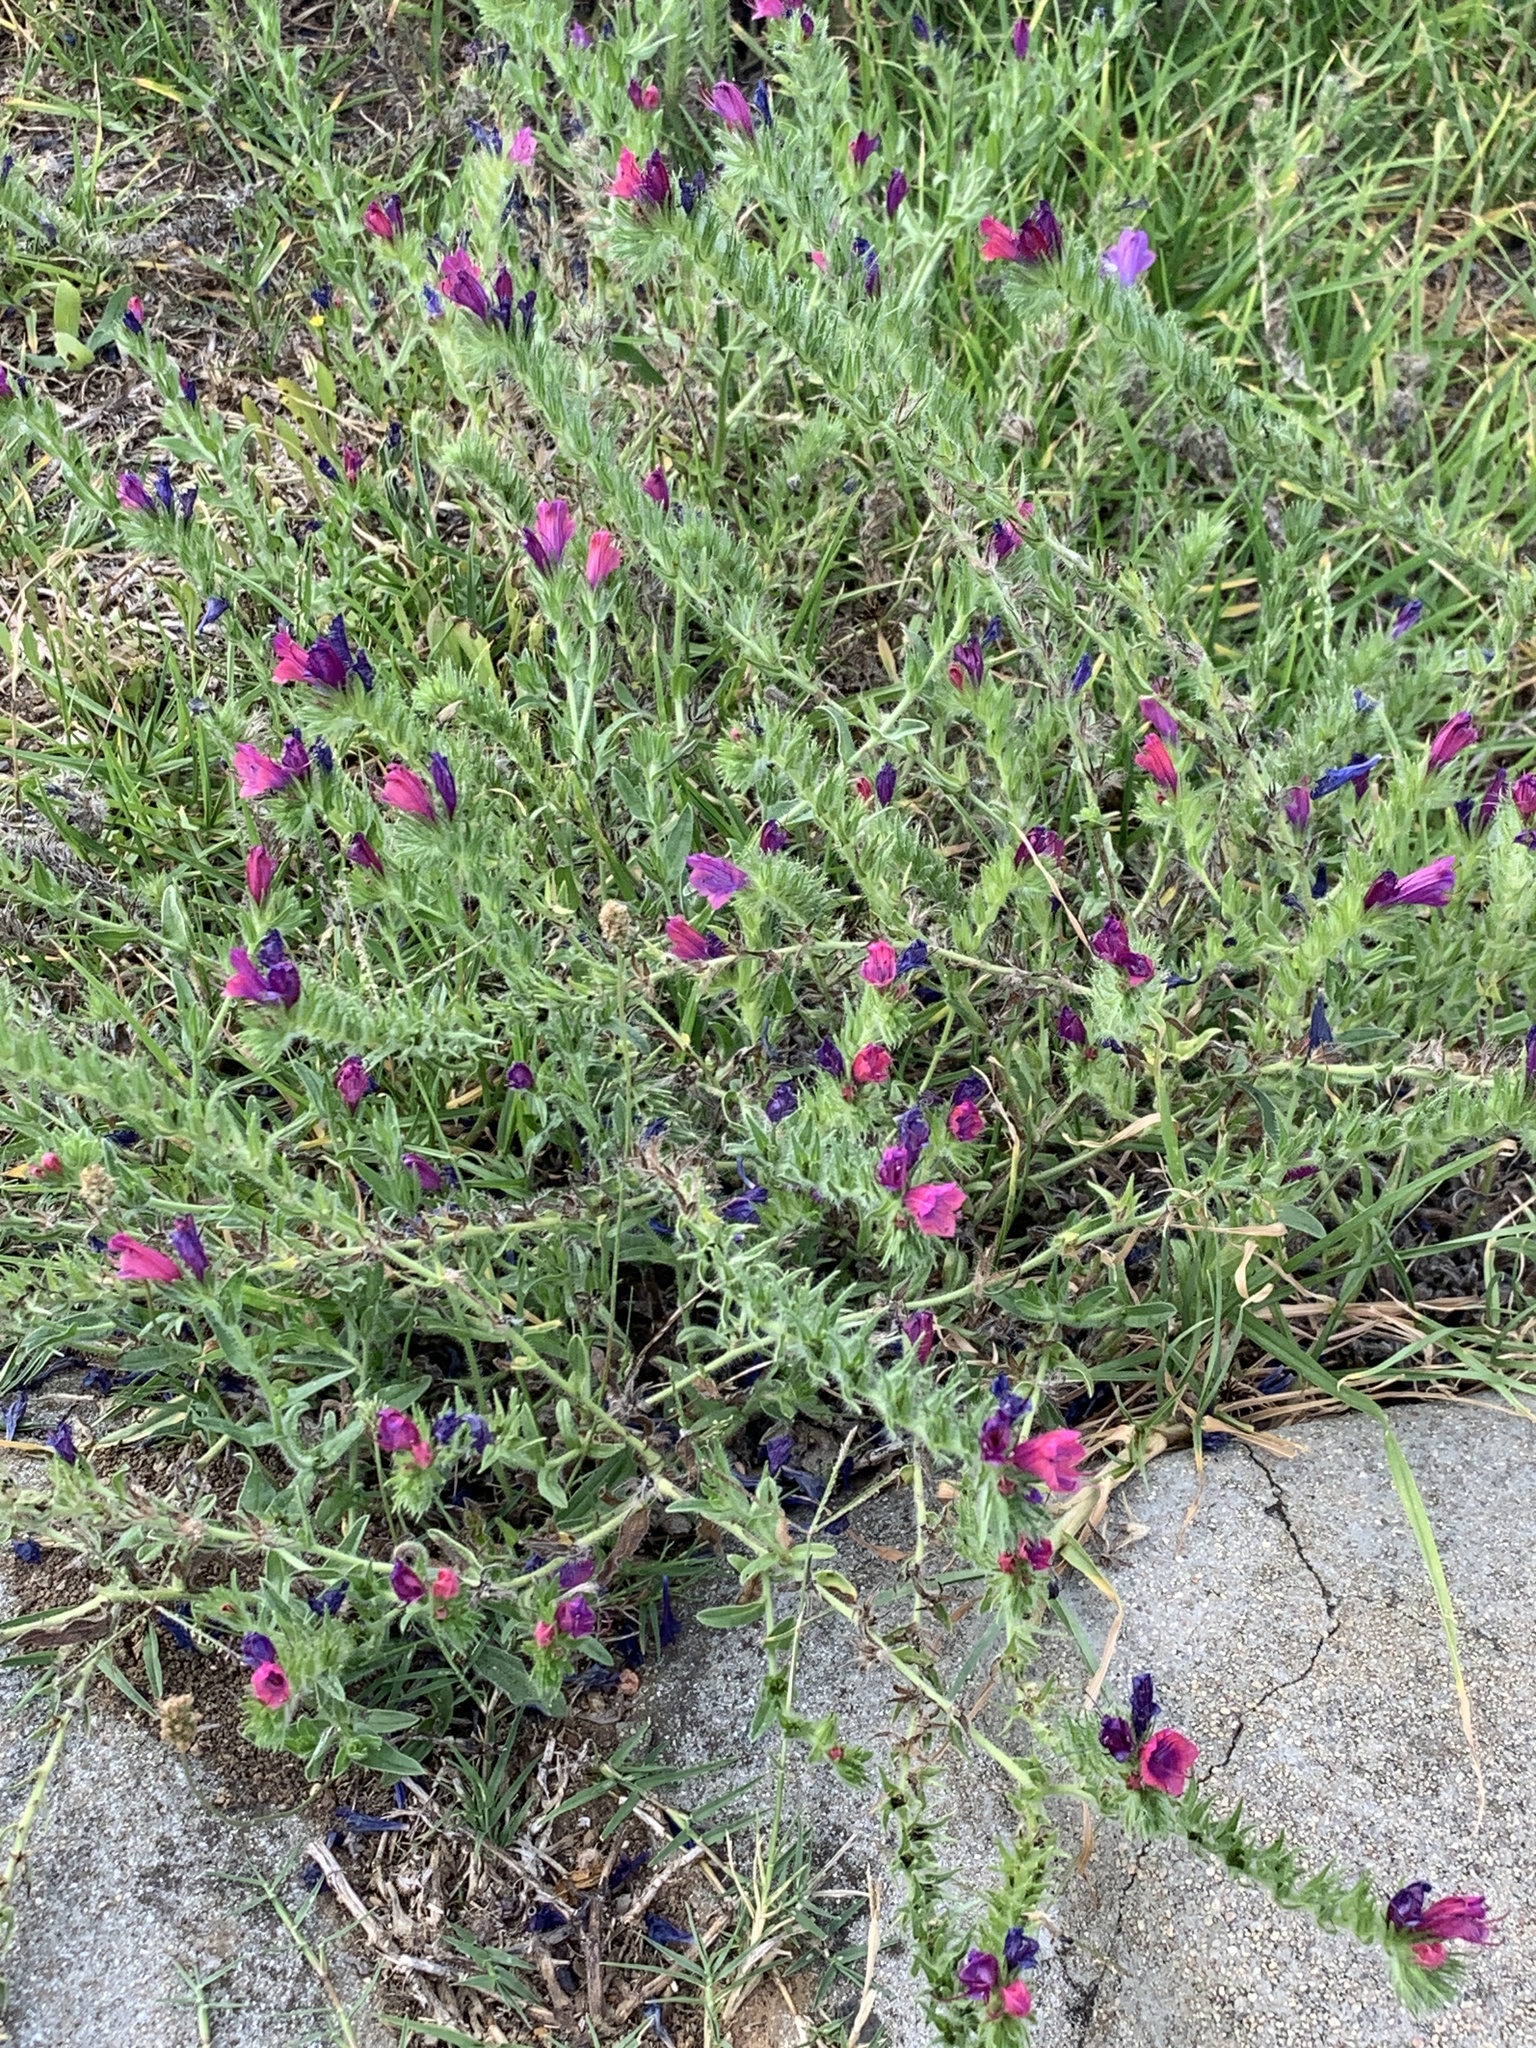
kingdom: Plantae
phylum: Tracheophyta
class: Magnoliopsida
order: Boraginales
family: Boraginaceae
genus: Echium
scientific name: Echium plantagineum
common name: Purple viper's-bugloss
